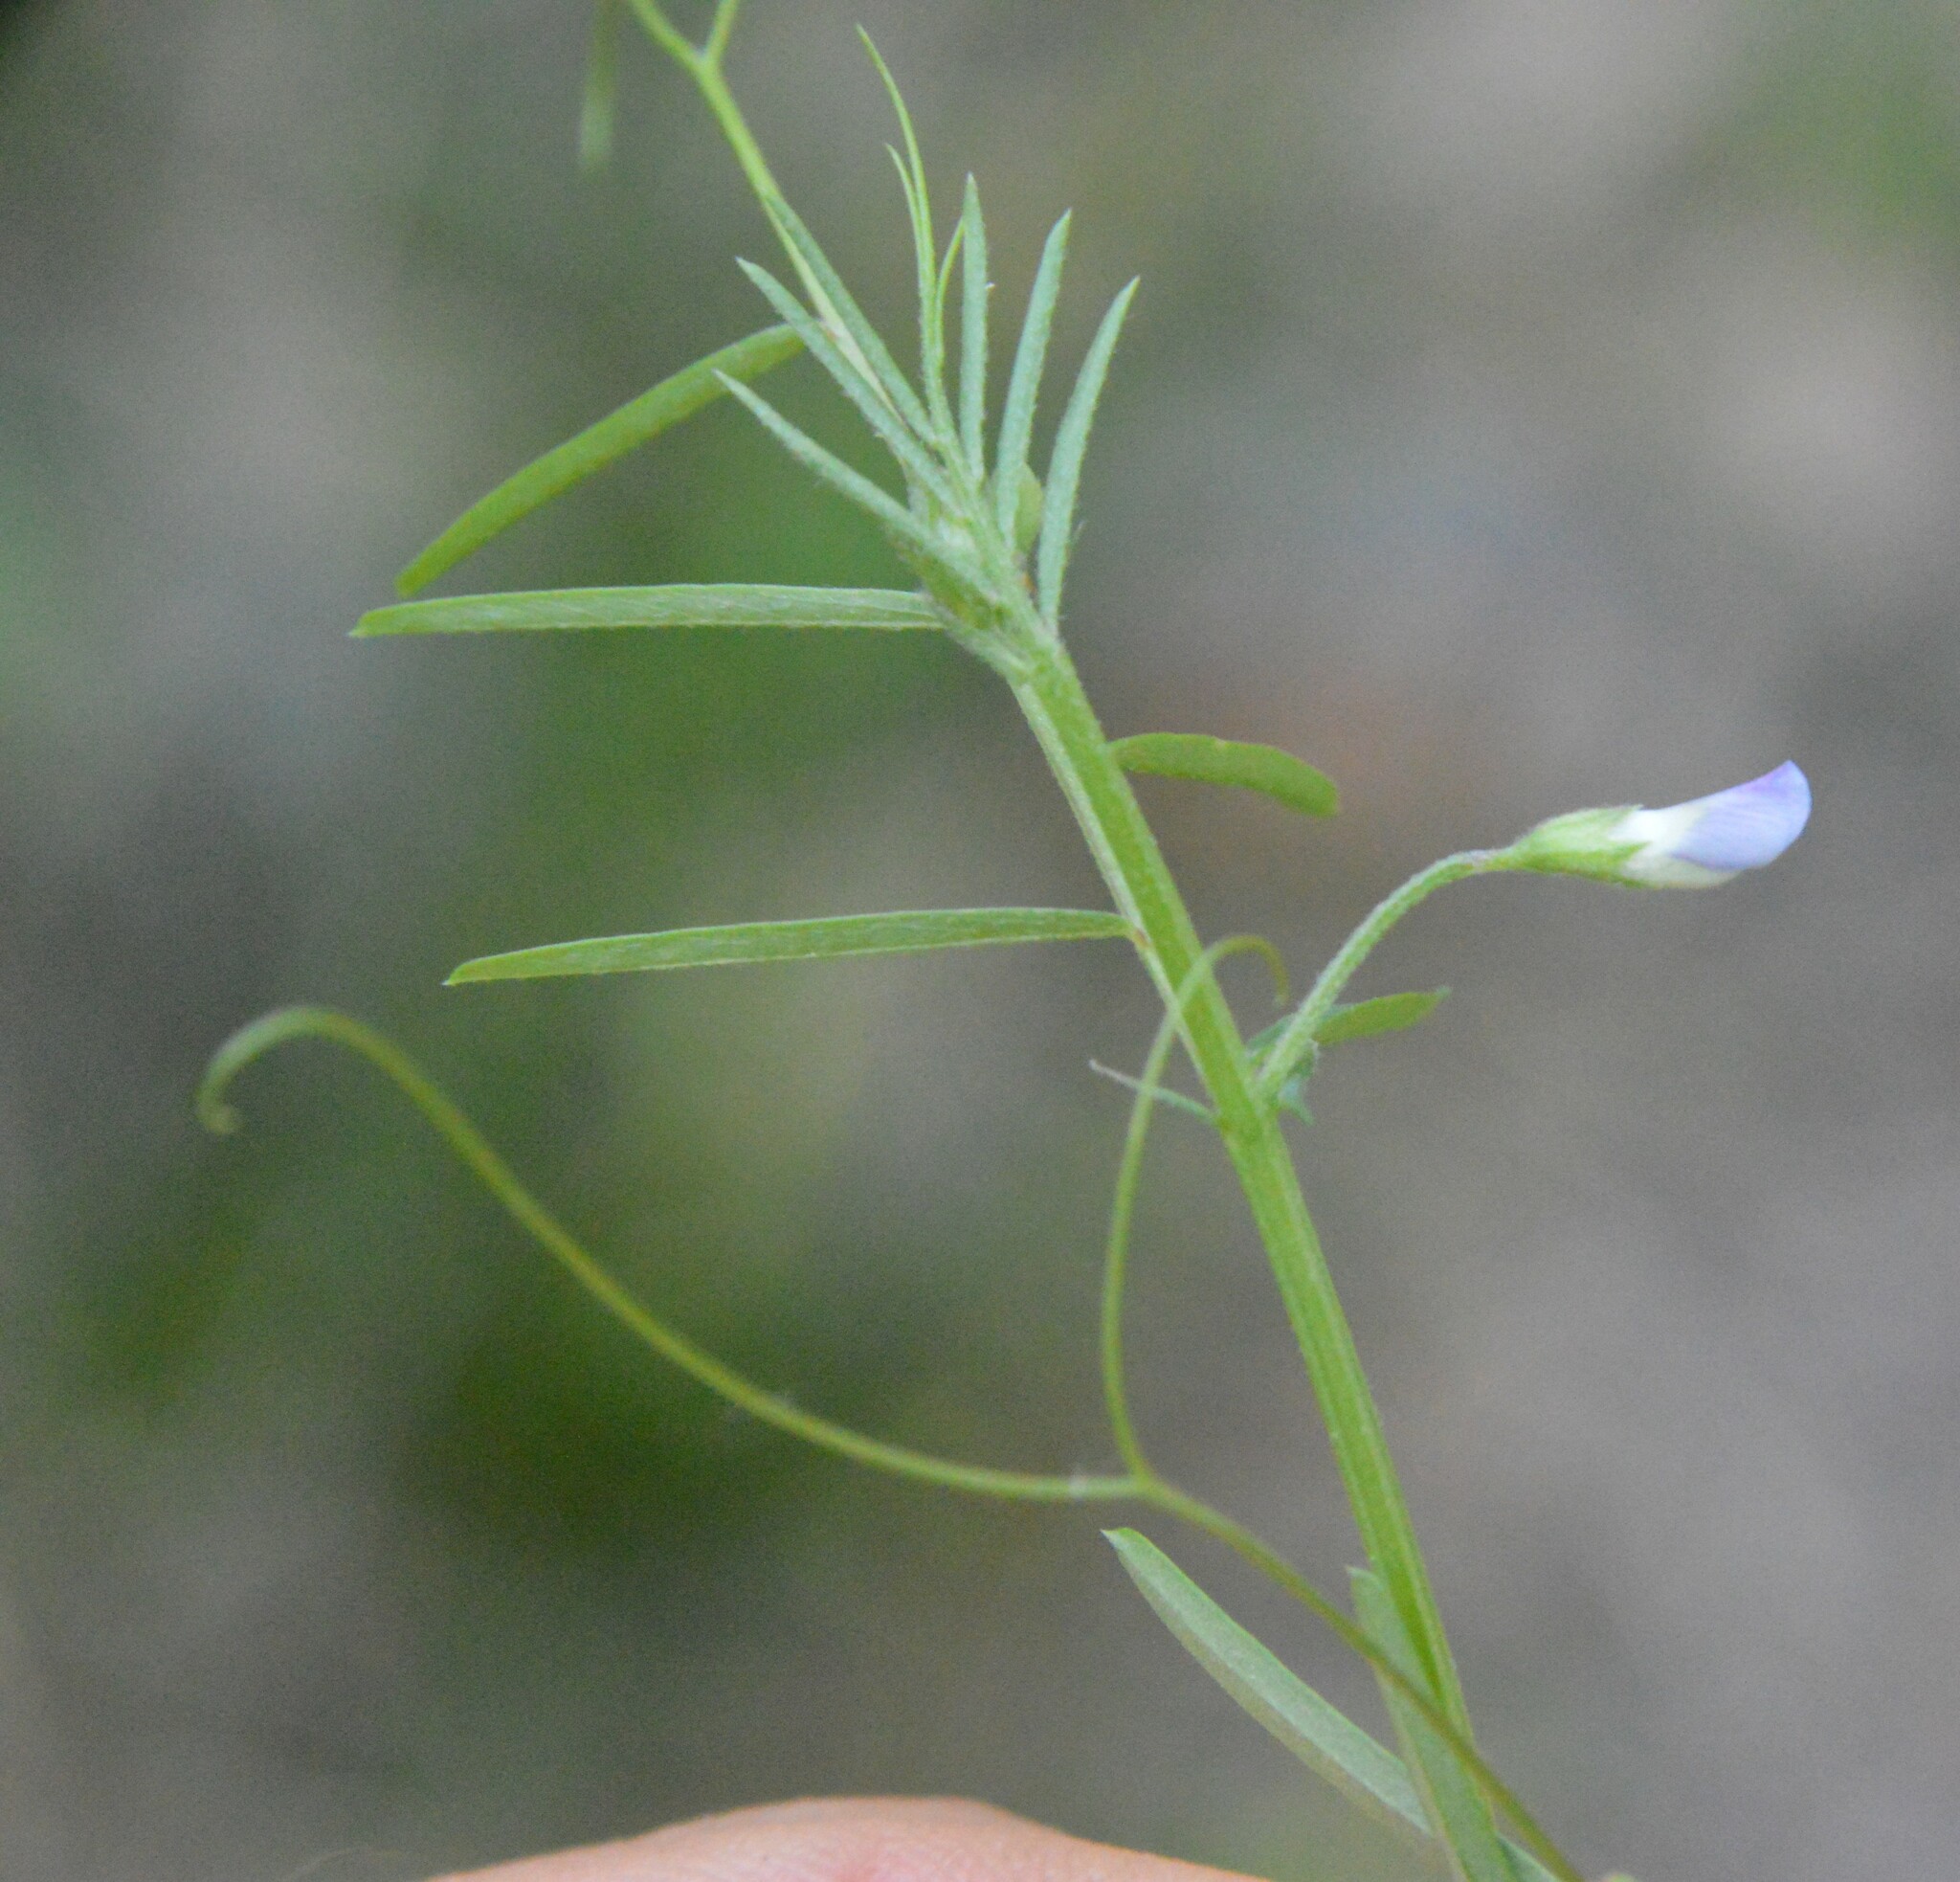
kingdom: Plantae
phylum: Tracheophyta
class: Magnoliopsida
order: Fabales
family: Fabaceae
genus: Vicia
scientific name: Vicia minutiflora
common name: Pygmy-flower vetch
